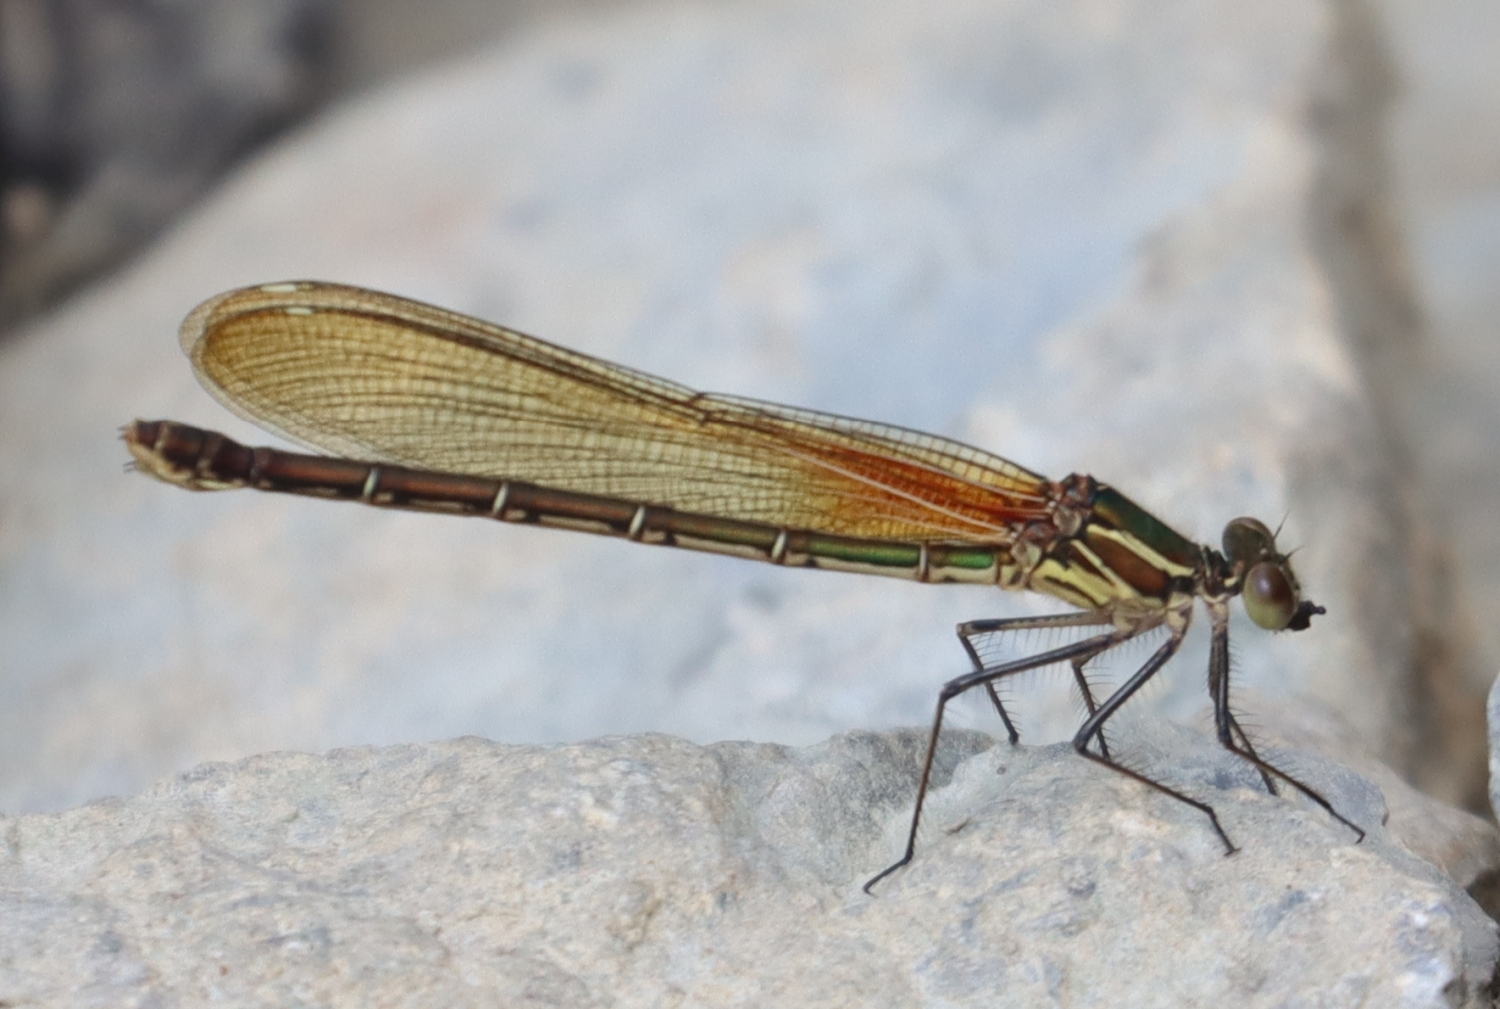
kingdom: Animalia
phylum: Arthropoda
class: Insecta
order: Odonata
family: Calopterygidae
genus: Hetaerina
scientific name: Hetaerina americana
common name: American rubyspot
